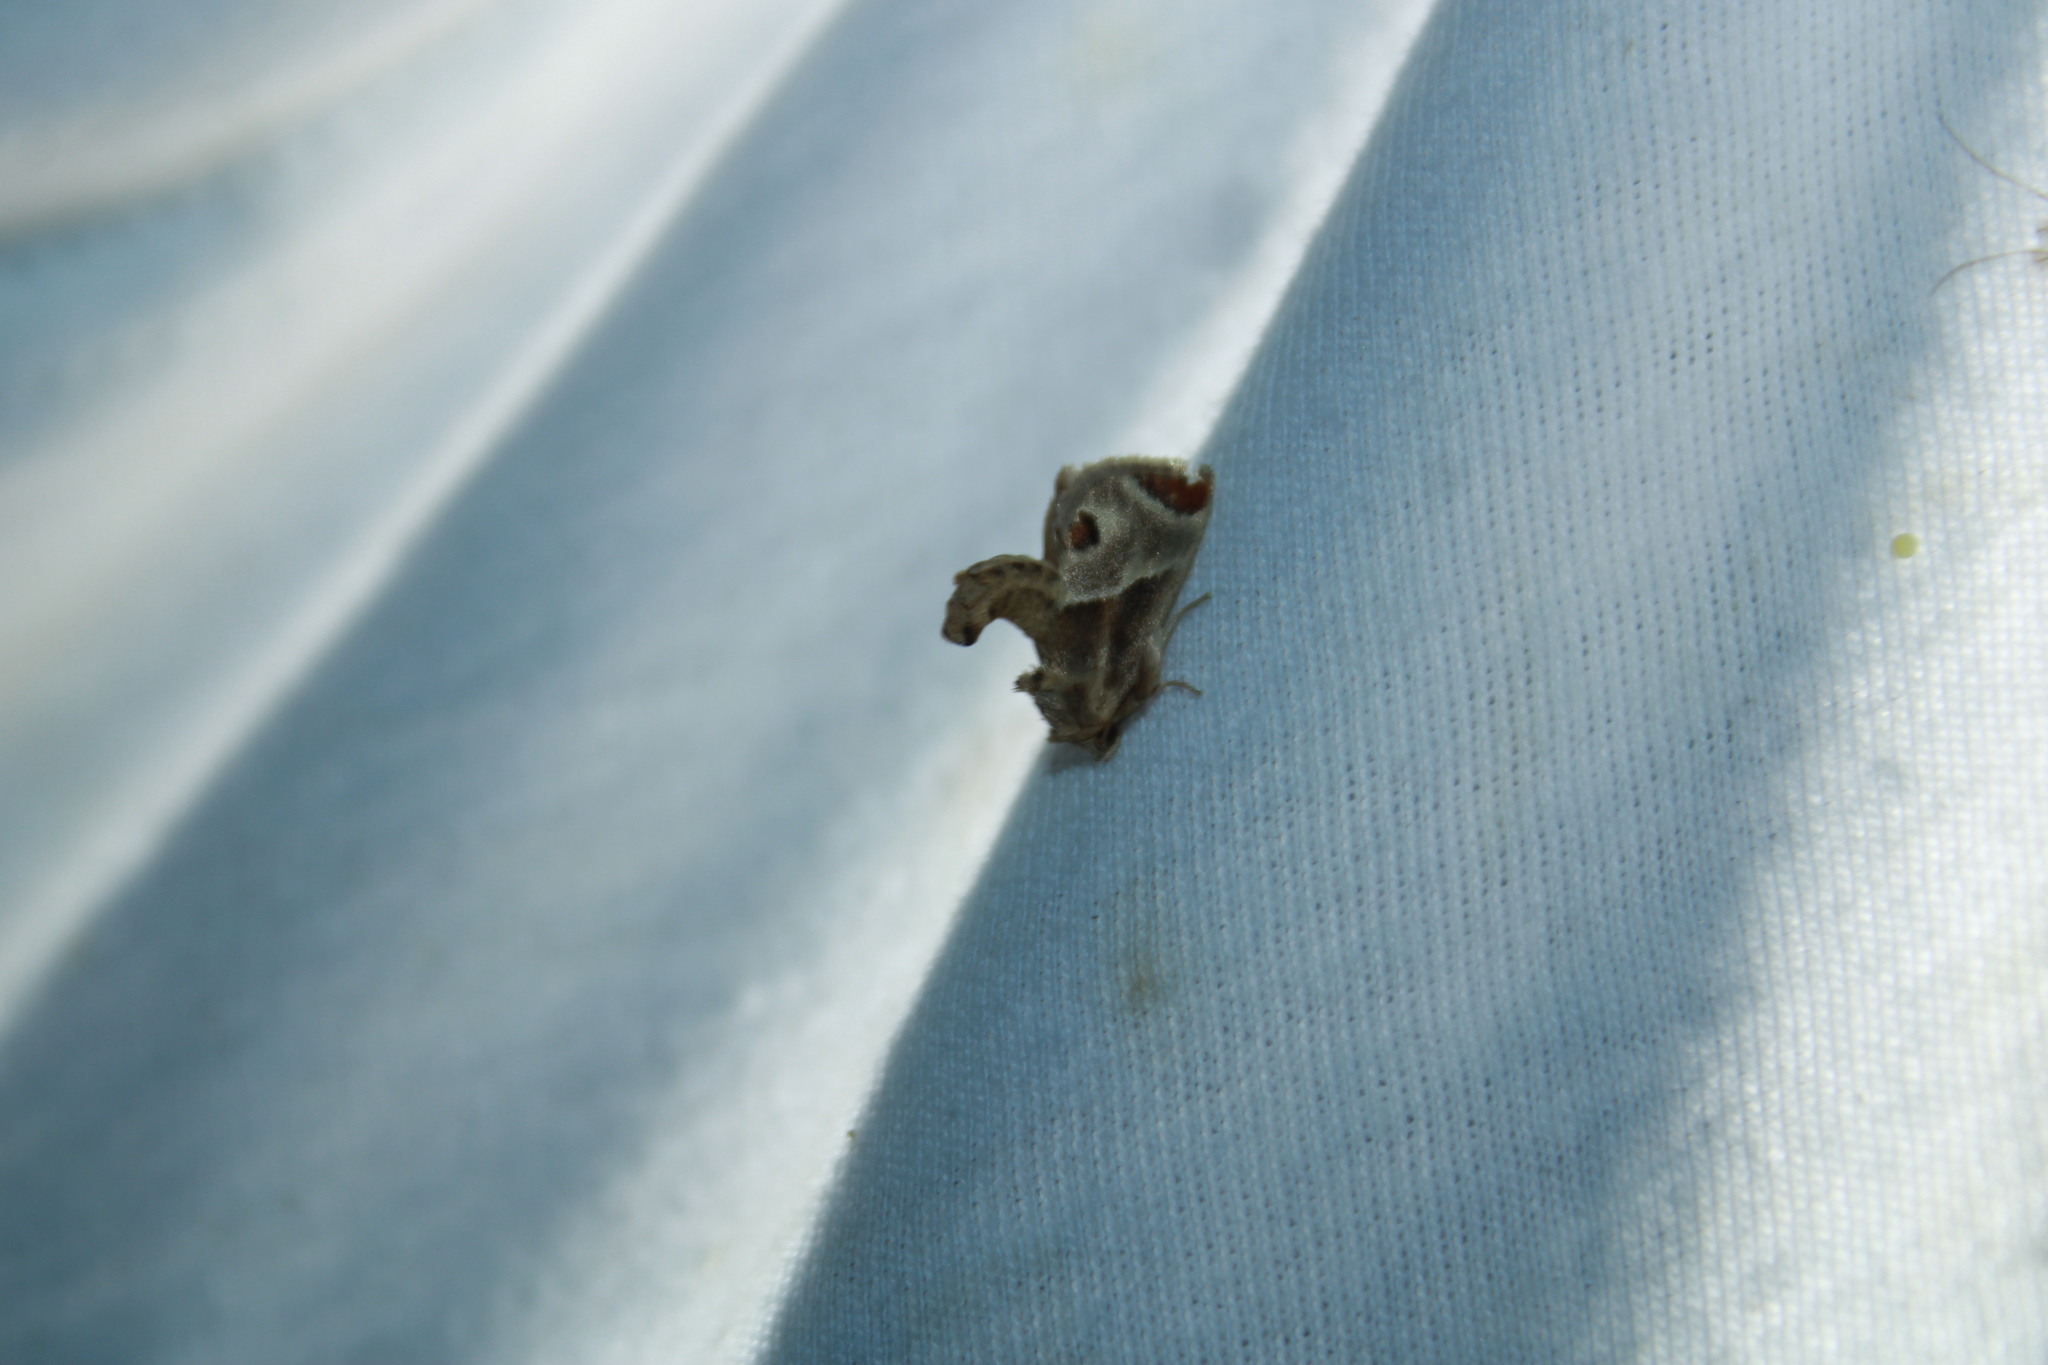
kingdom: Animalia
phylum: Arthropoda
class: Insecta
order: Lepidoptera
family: Limacodidae
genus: Apoda
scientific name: Apoda biguttata
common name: Shagreened slug moth
